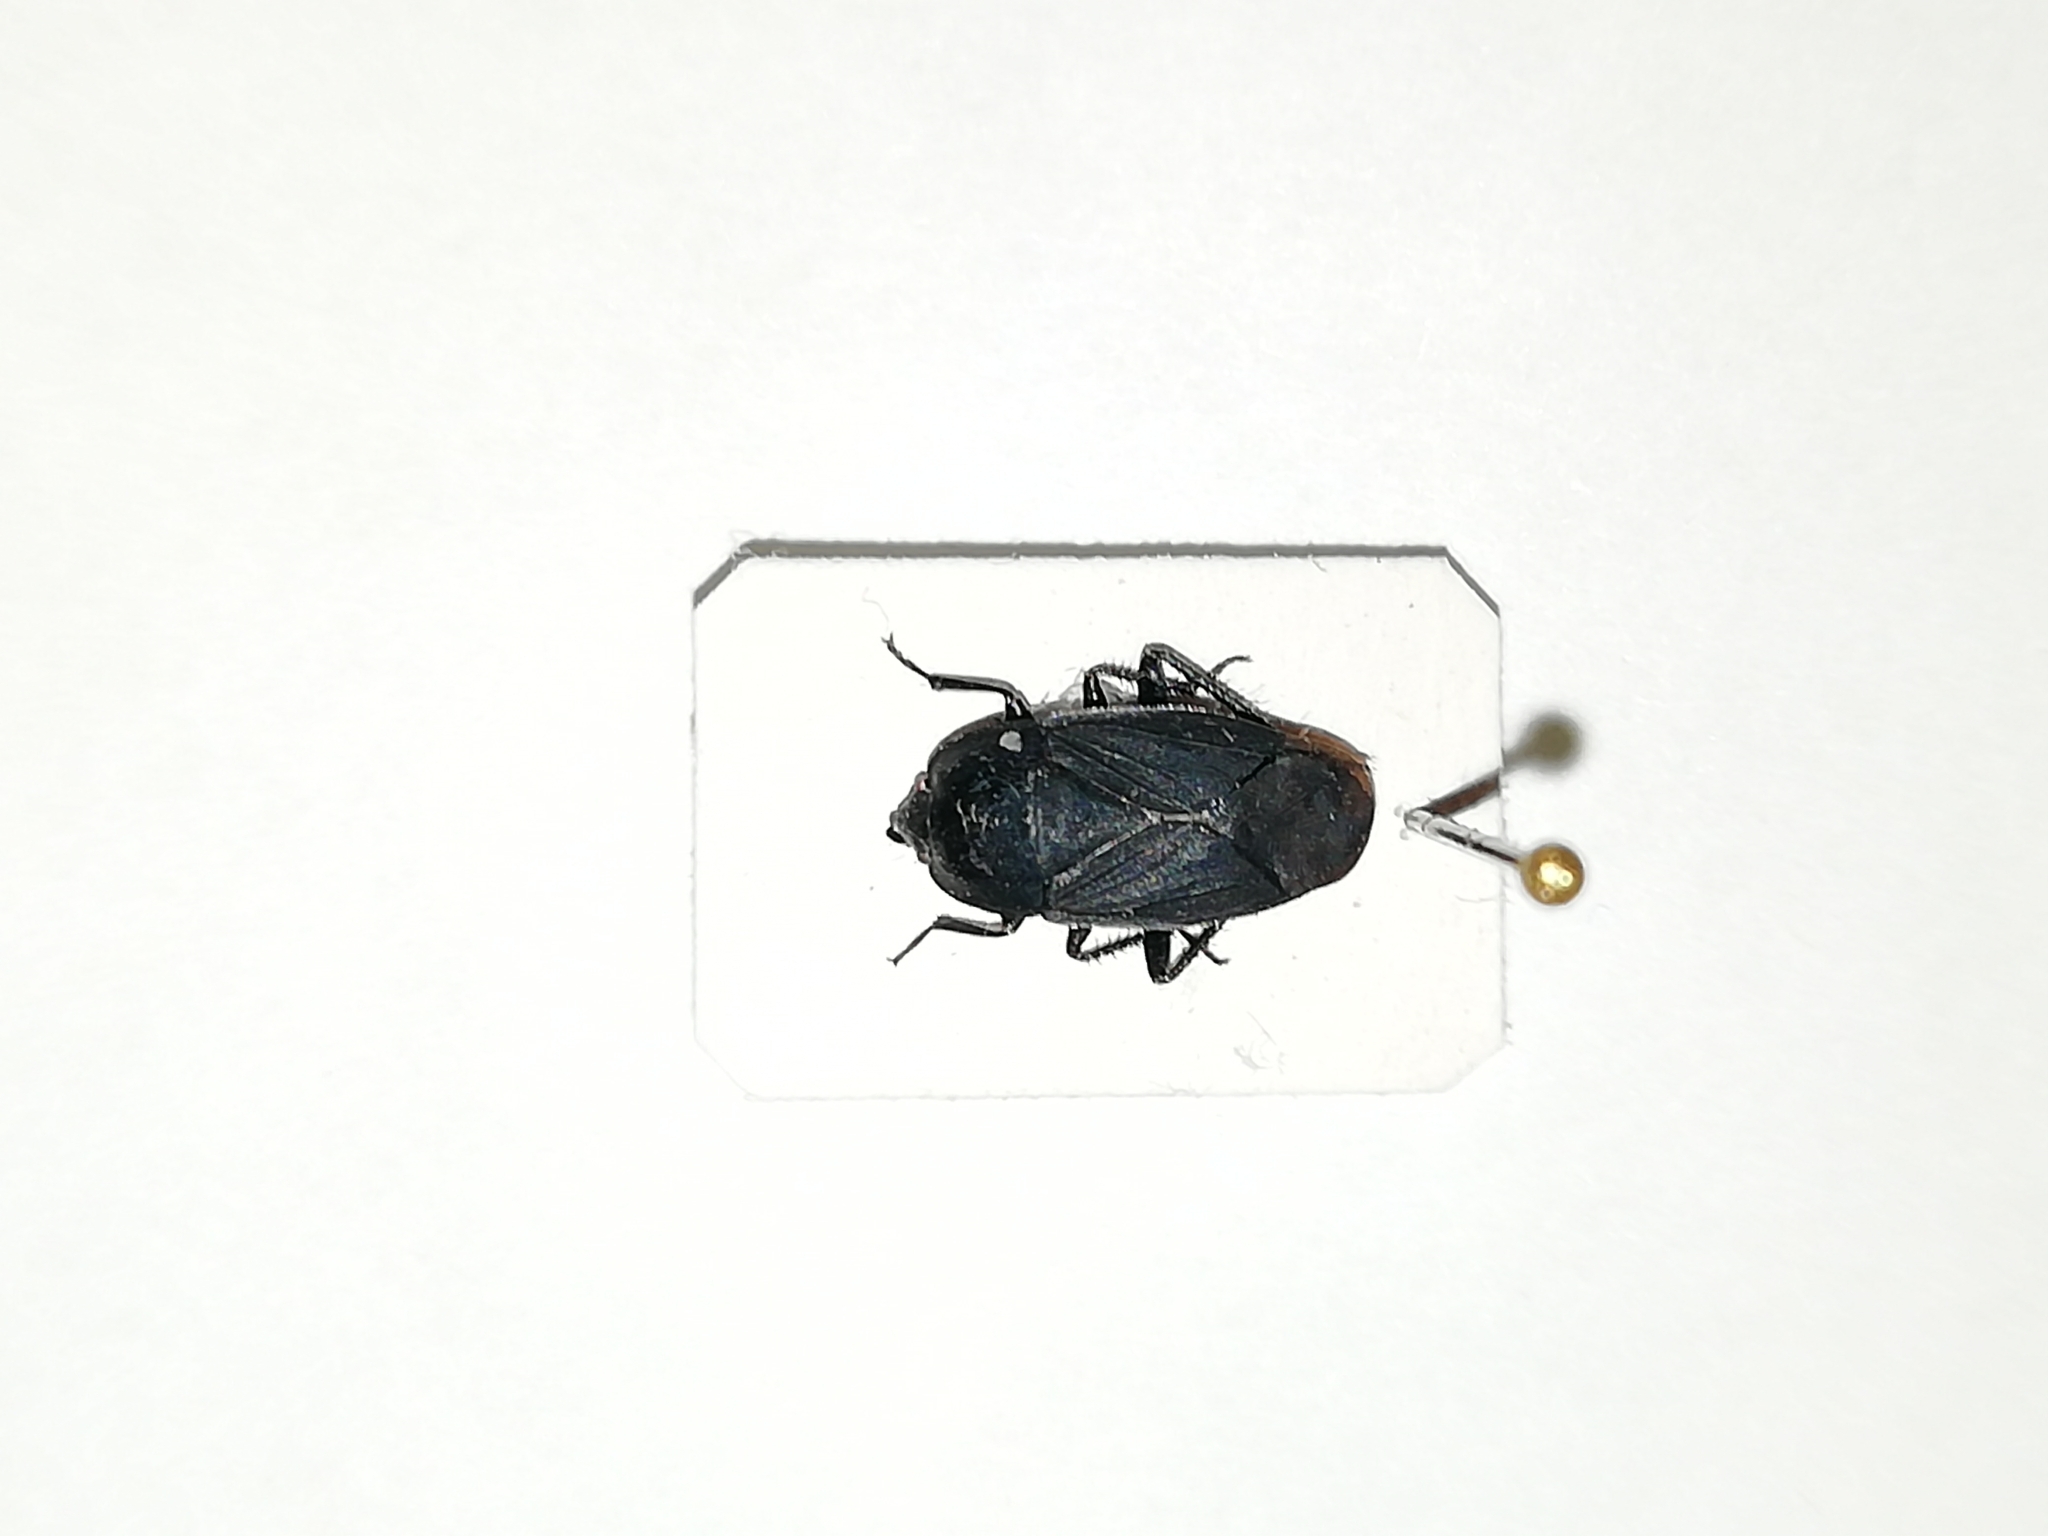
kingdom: Animalia
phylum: Arthropoda
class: Insecta
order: Hemiptera
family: Rhyparochromidae
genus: Aellopus
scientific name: Aellopus atratus
